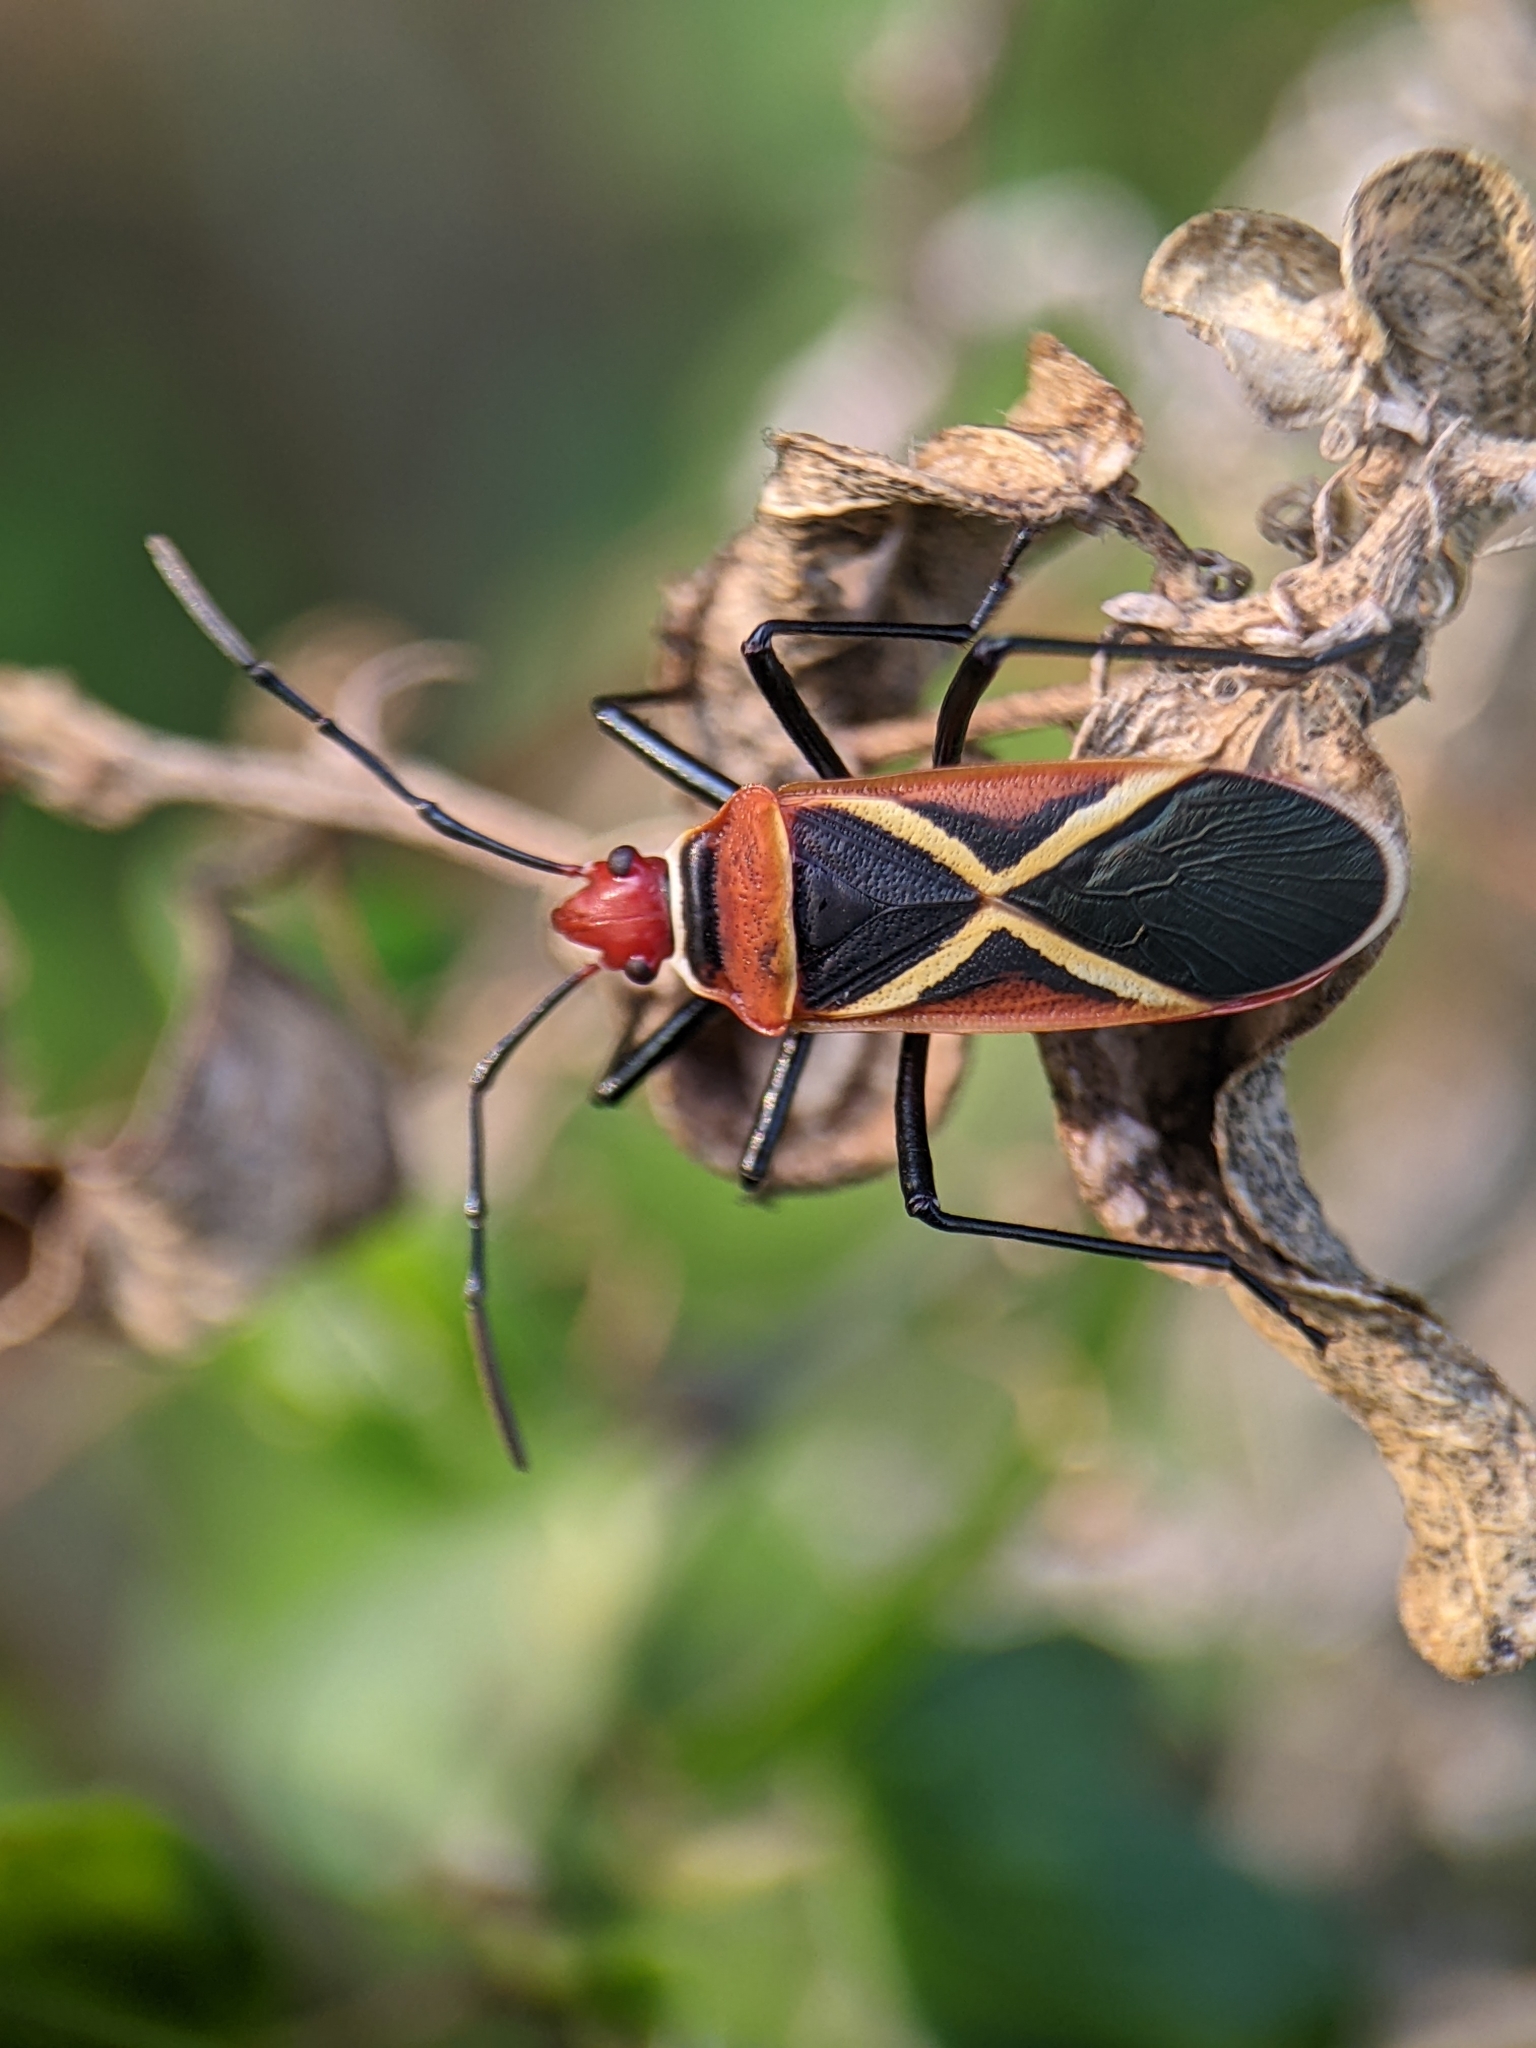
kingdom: Animalia
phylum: Arthropoda
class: Insecta
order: Hemiptera
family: Pyrrhocoridae
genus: Dysdercus
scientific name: Dysdercus decussatus
